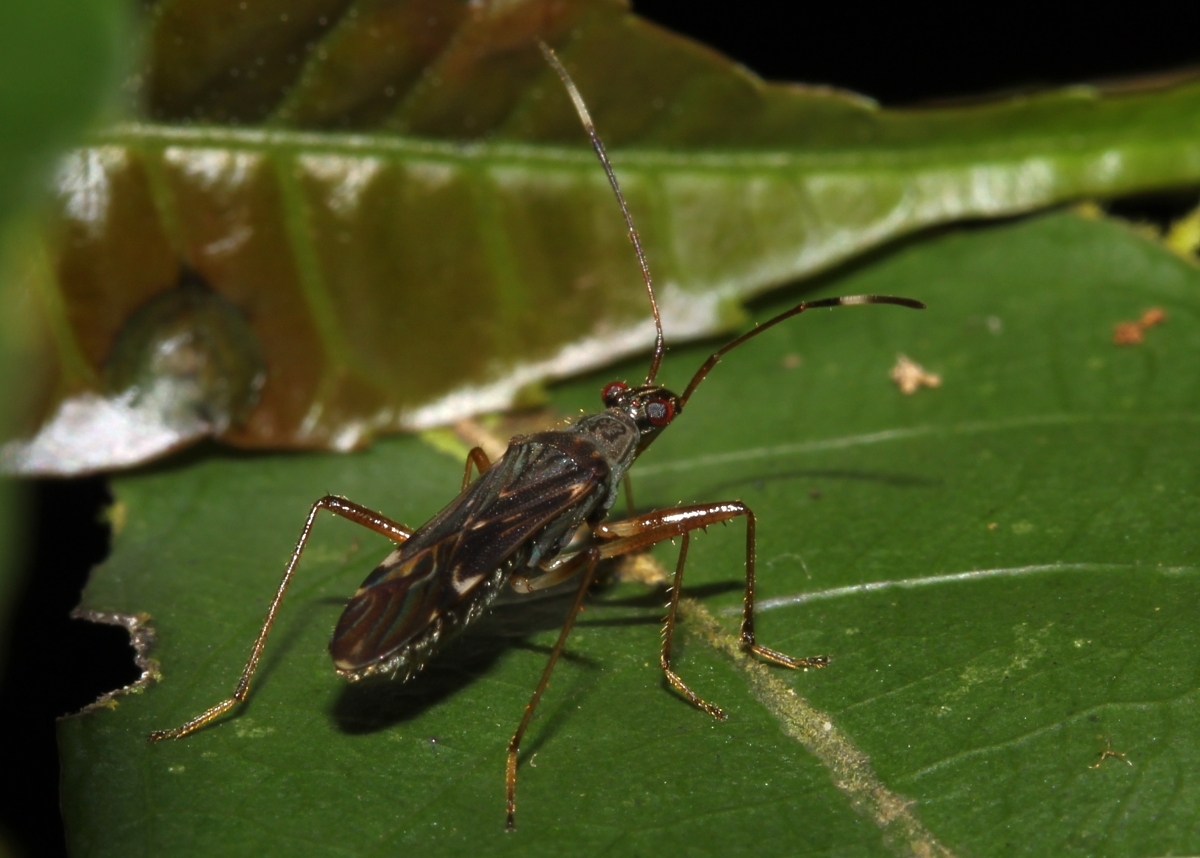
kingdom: Animalia
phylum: Arthropoda
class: Insecta
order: Hemiptera
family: Rhyparochromidae
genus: Neopamera
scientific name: Neopamera neotropicalis
